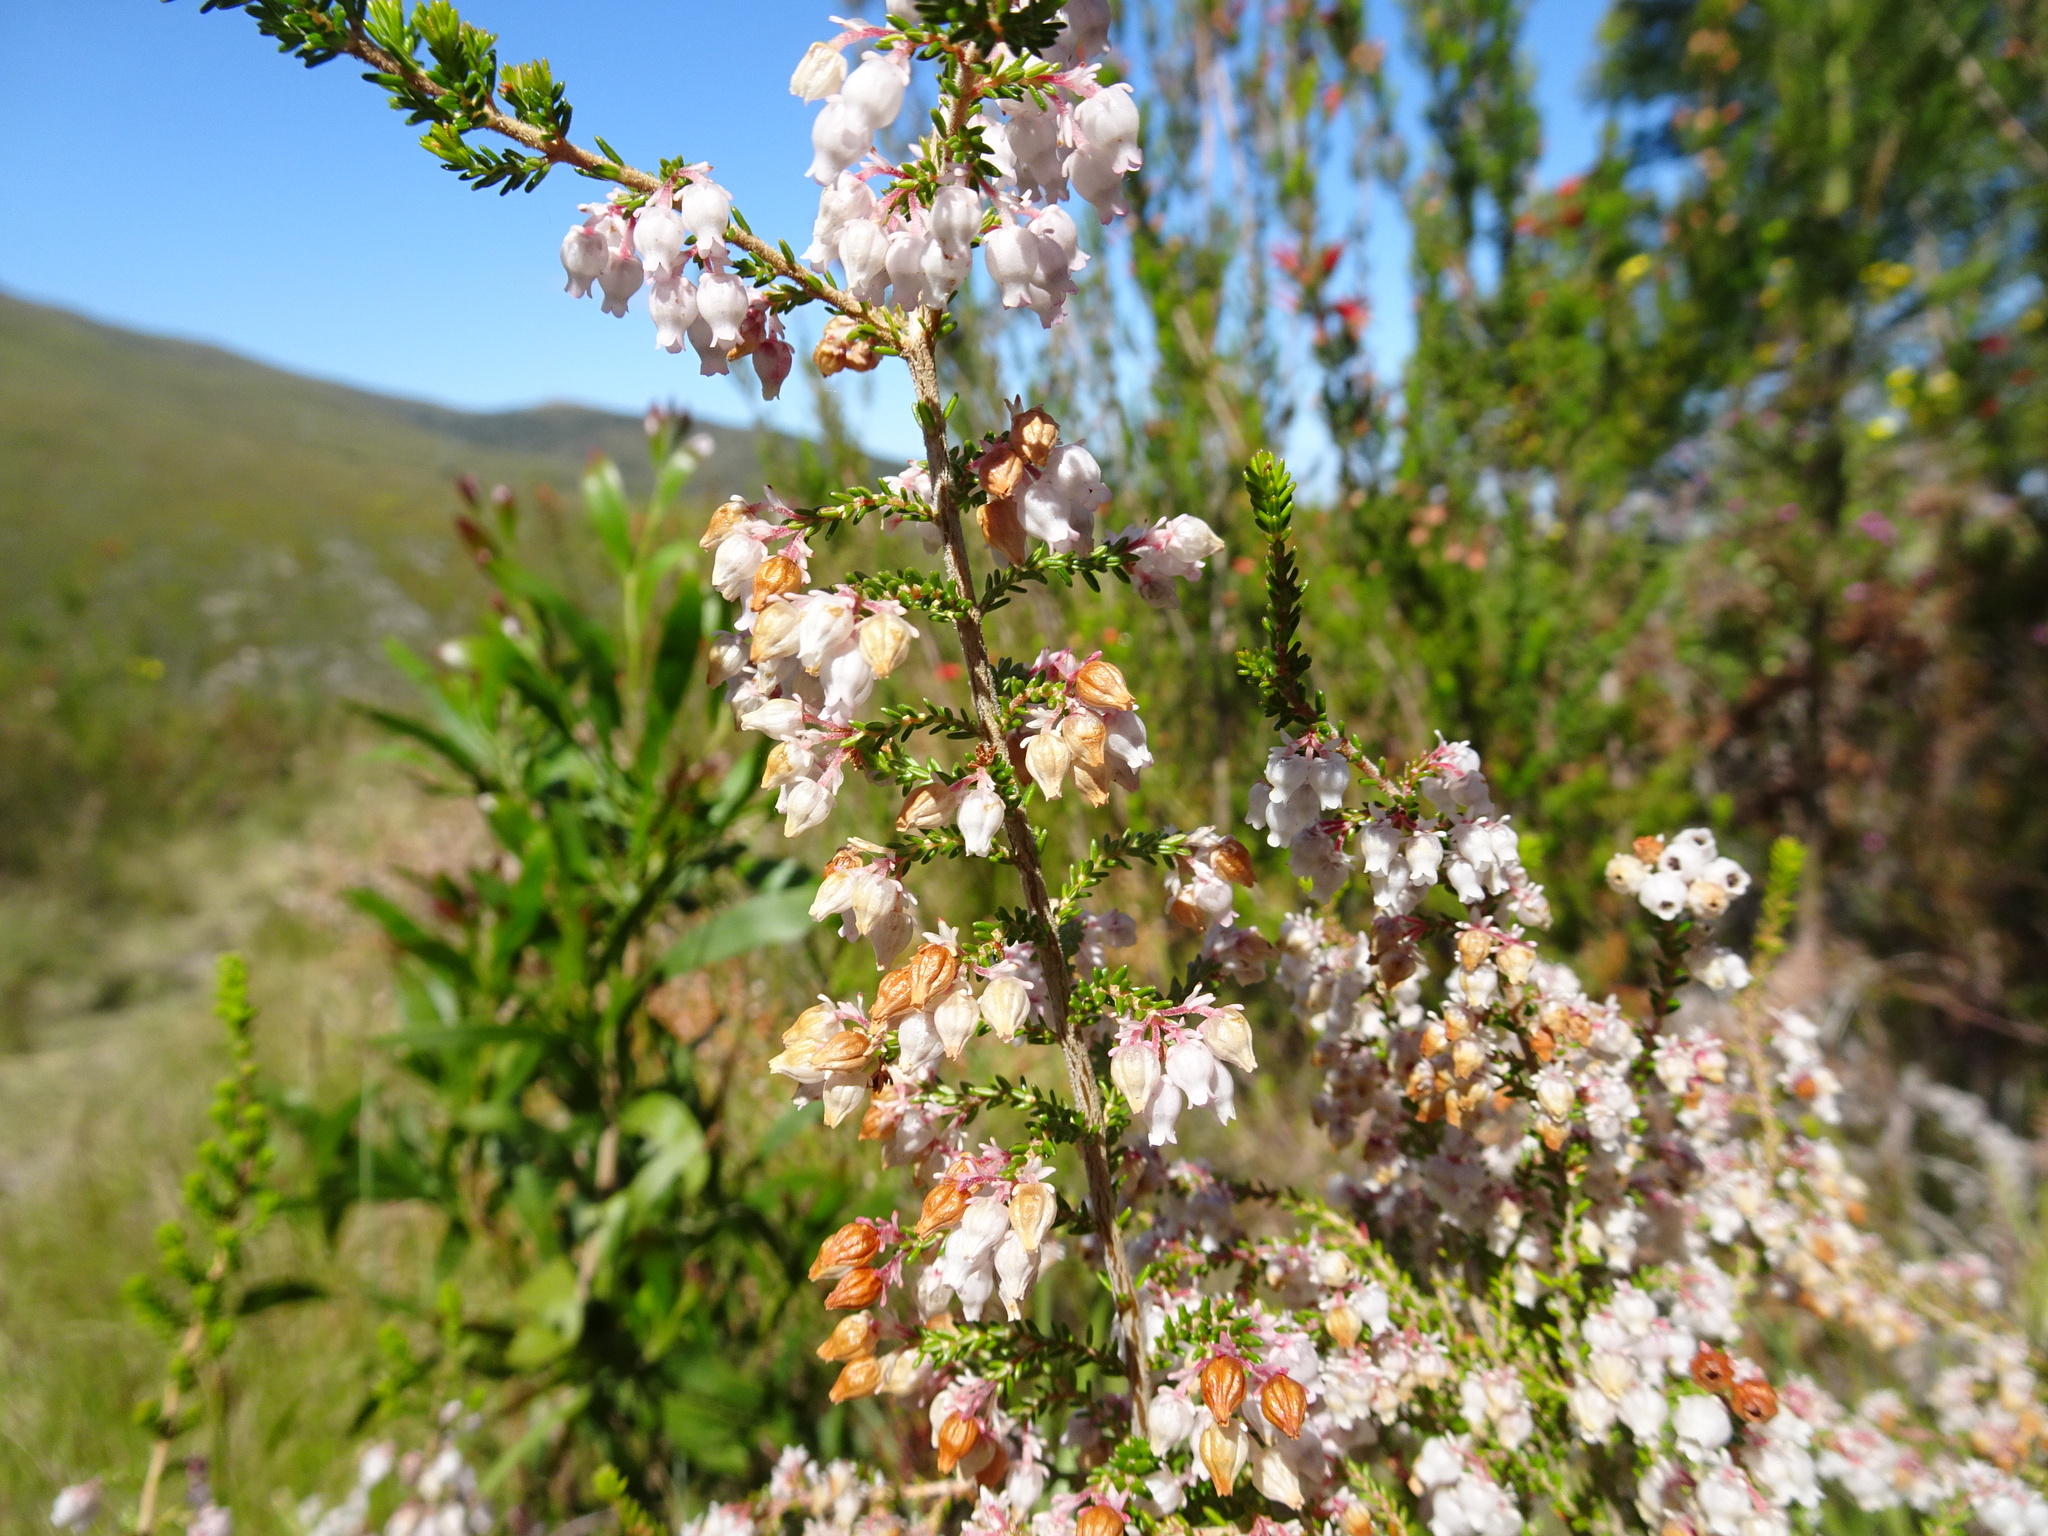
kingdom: Plantae
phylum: Tracheophyta
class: Magnoliopsida
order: Ericales
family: Ericaceae
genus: Erica
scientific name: Erica glomiflora
